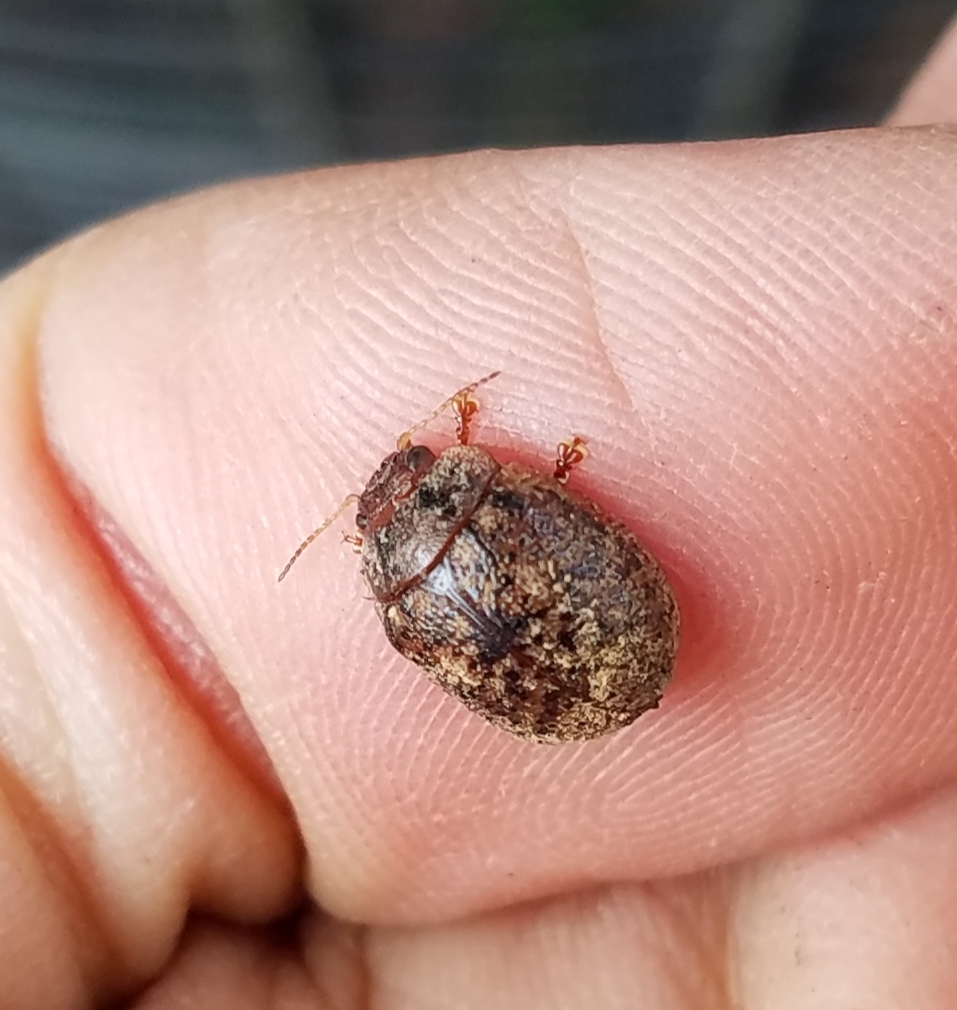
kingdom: Animalia
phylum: Arthropoda
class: Insecta
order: Coleoptera
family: Chrysomelidae
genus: Trachymela
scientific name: Trachymela sloanei
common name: Australian tortoise beetle
